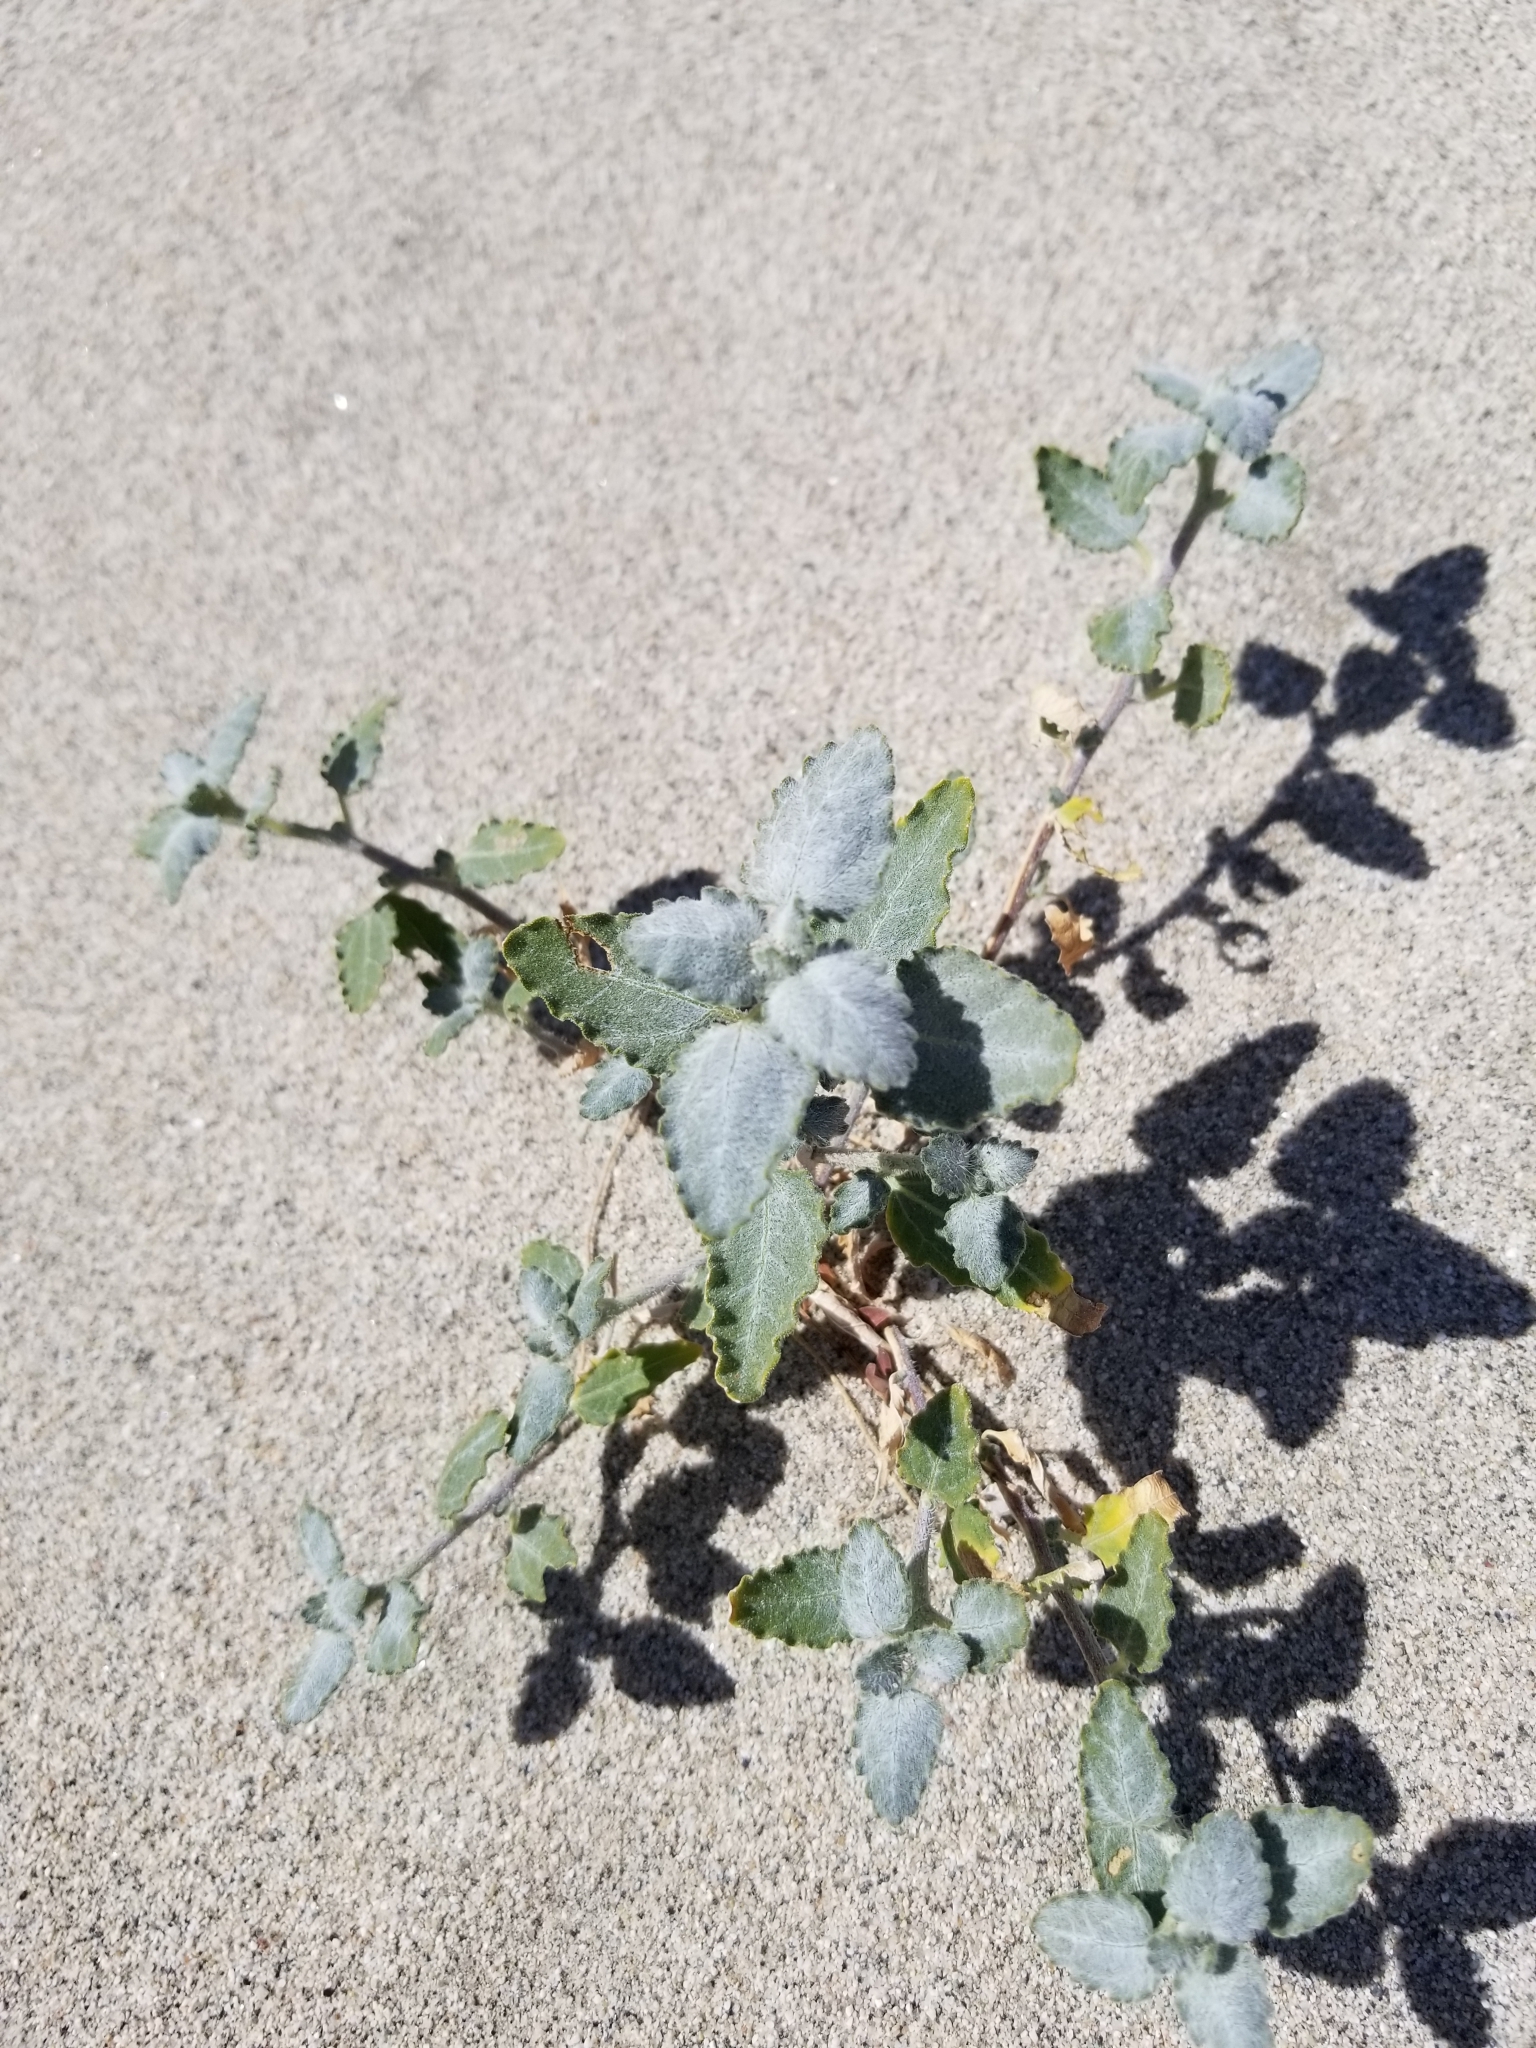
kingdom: Plantae
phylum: Tracheophyta
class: Magnoliopsida
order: Asterales
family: Asteraceae
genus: Dicoria
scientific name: Dicoria canescens
